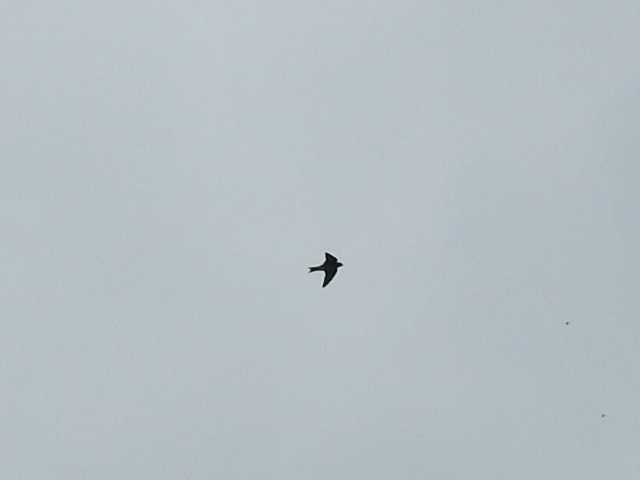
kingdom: Animalia
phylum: Chordata
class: Aves
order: Passeriformes
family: Hirundinidae
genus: Progne
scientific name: Progne subis
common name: Purple martin
